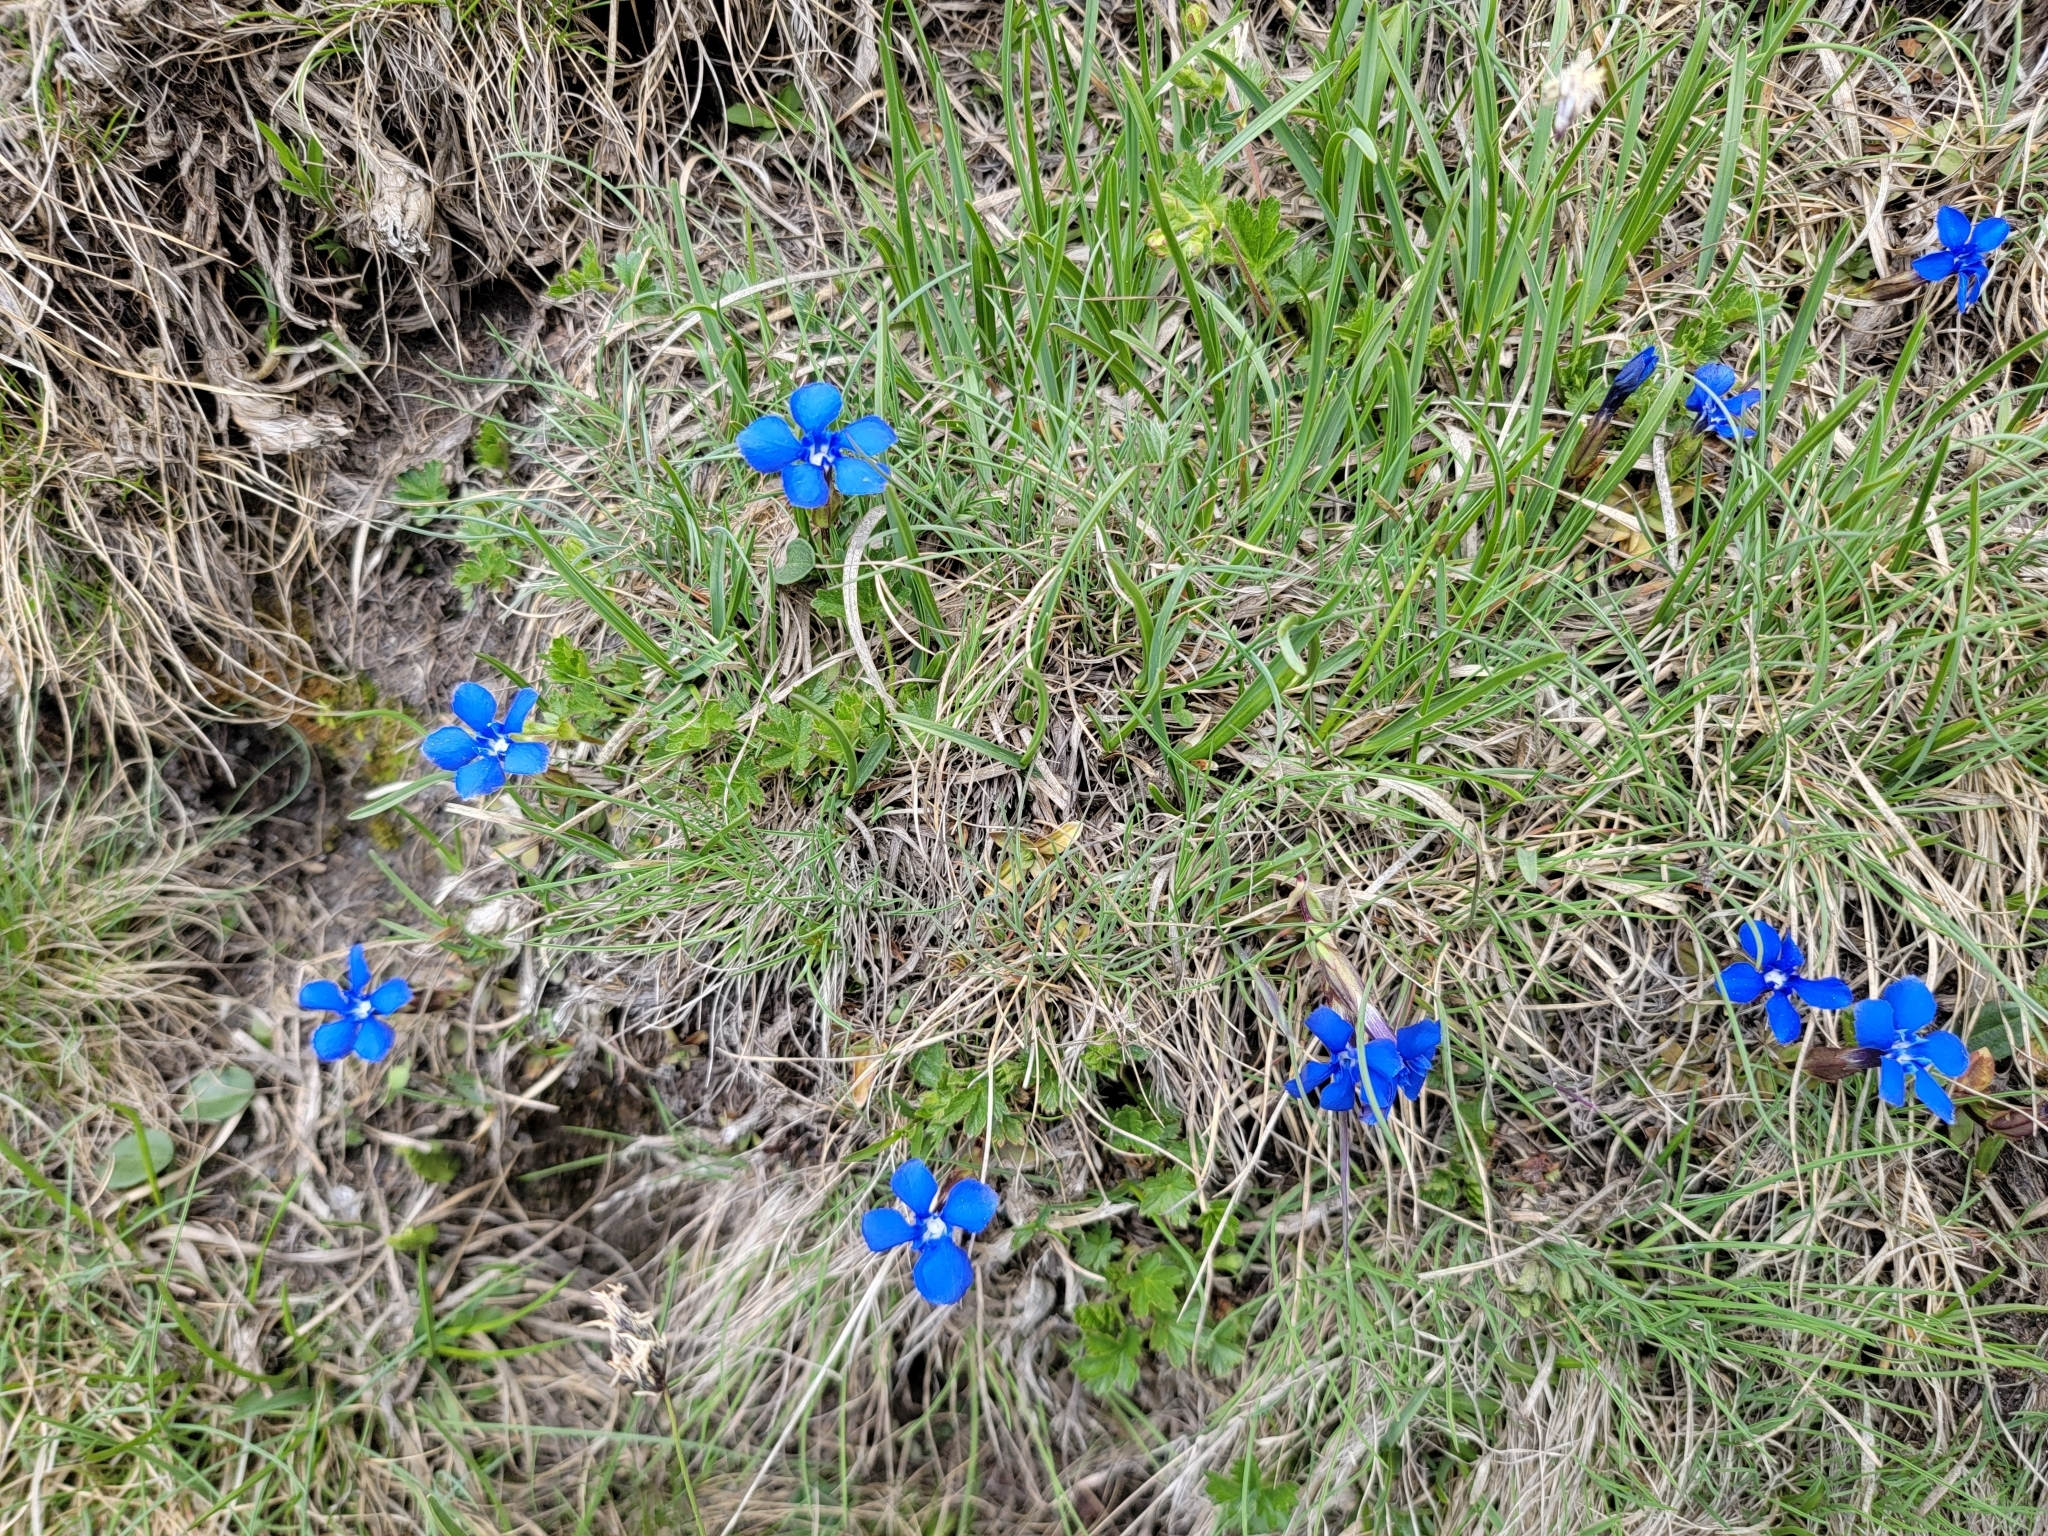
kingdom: Plantae
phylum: Tracheophyta
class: Magnoliopsida
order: Gentianales
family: Gentianaceae
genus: Gentiana
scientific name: Gentiana verna
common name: Spring gentian
